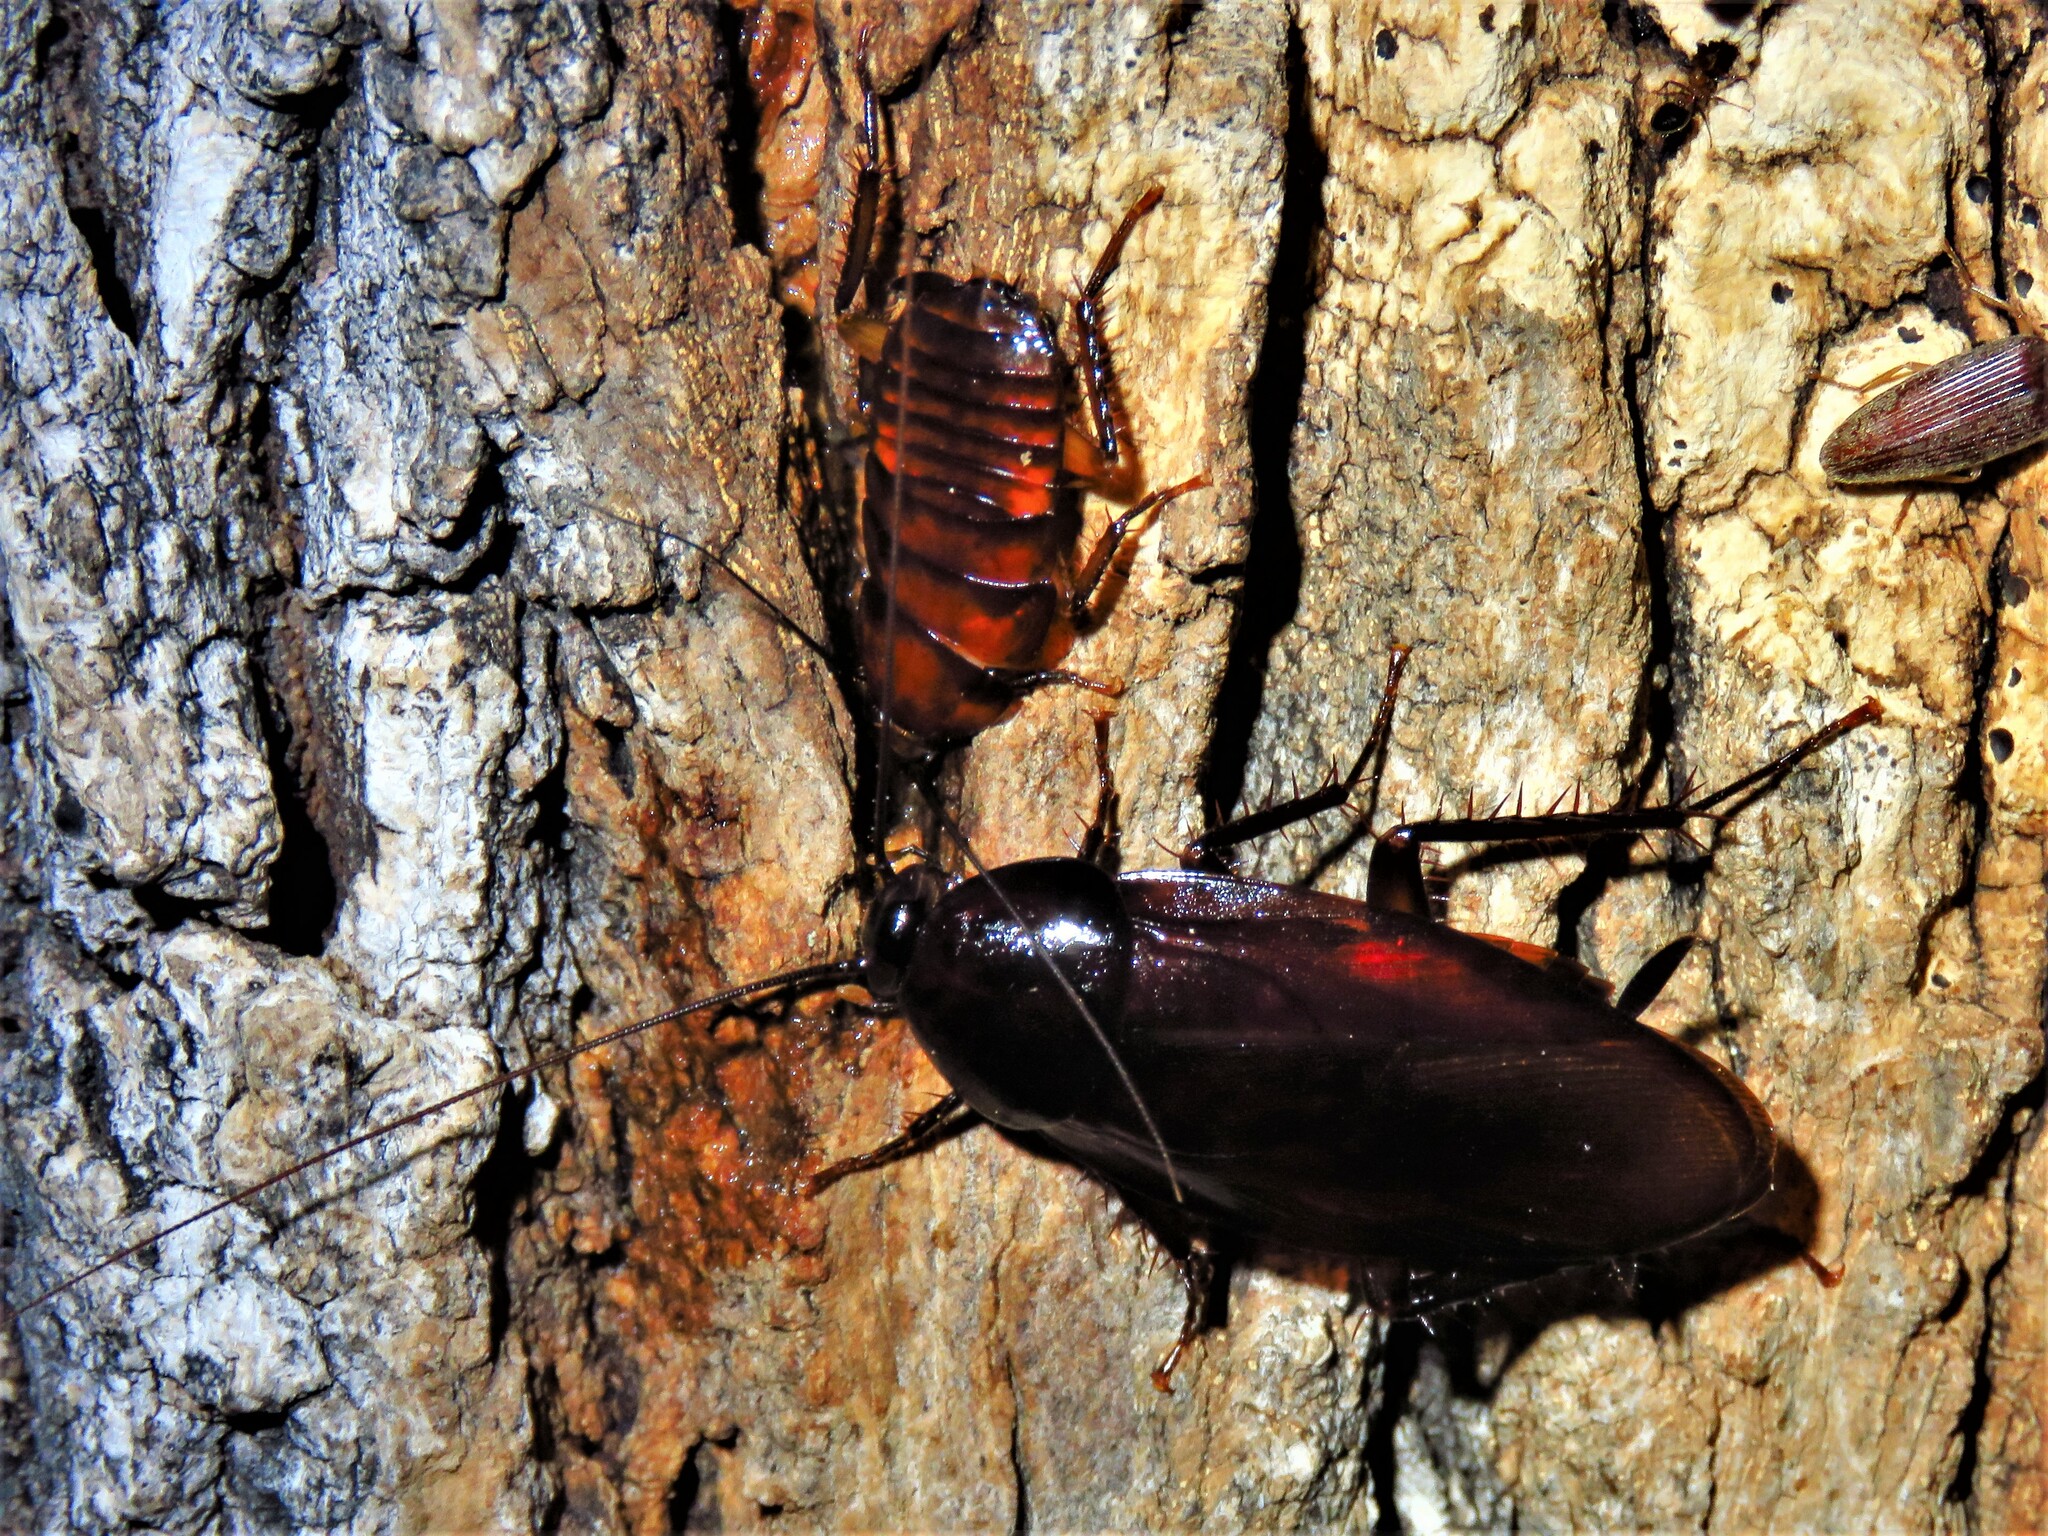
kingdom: Animalia
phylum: Arthropoda
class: Insecta
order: Blattodea
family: Blattidae
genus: Periplaneta
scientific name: Periplaneta fuliginosa
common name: Smokeybrown cockroad
